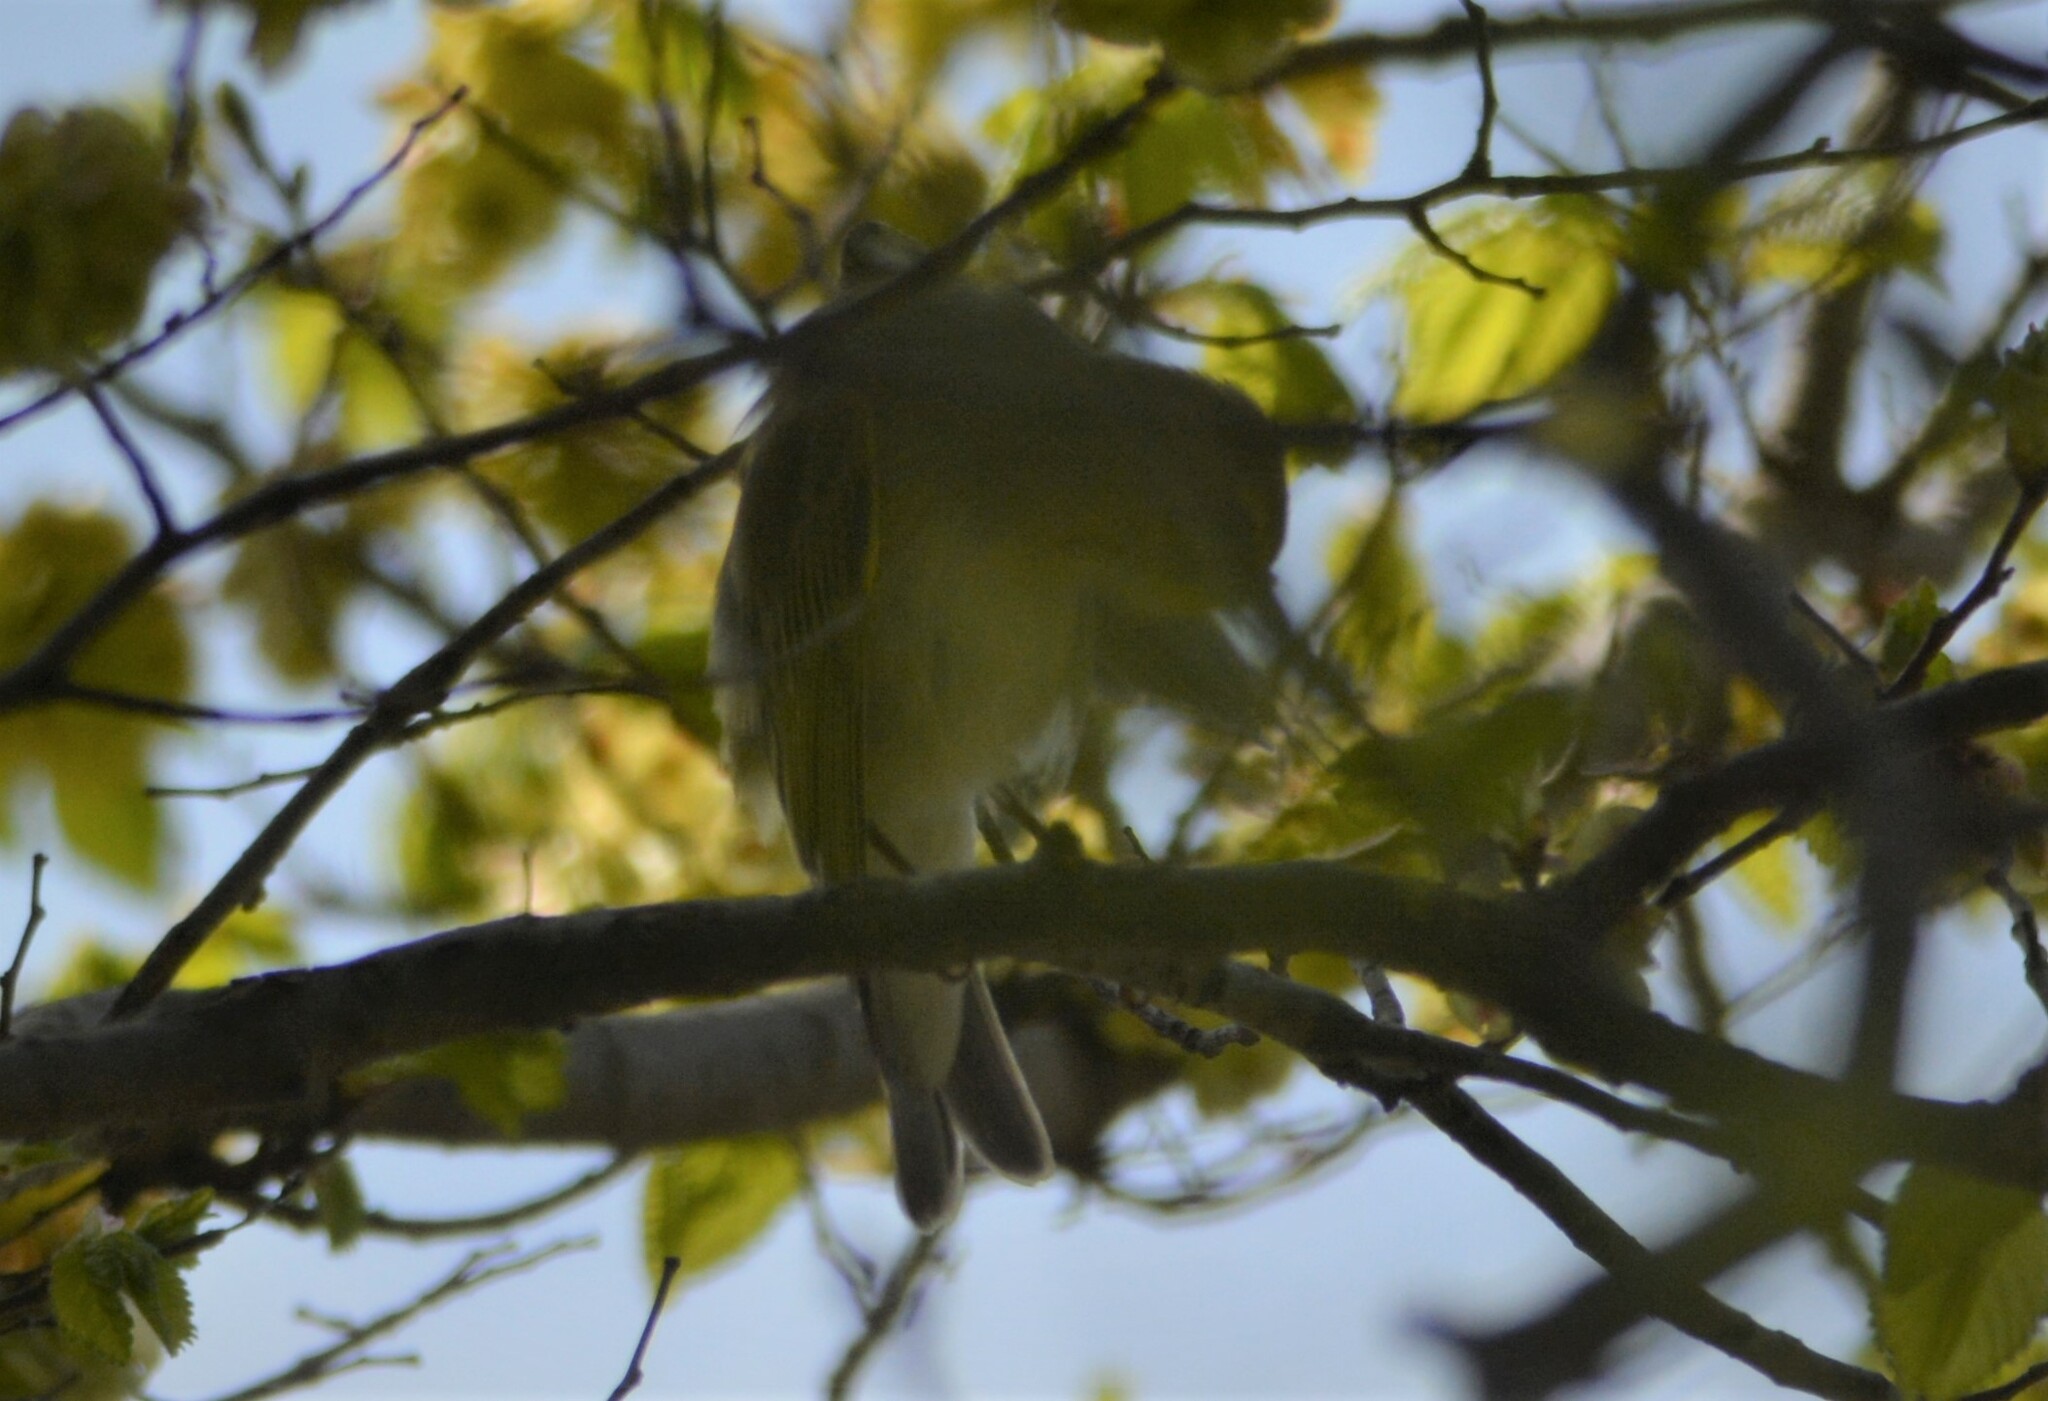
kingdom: Animalia
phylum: Chordata
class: Aves
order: Passeriformes
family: Phylloscopidae
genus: Phylloscopus
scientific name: Phylloscopus sibillatrix
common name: Wood warbler
